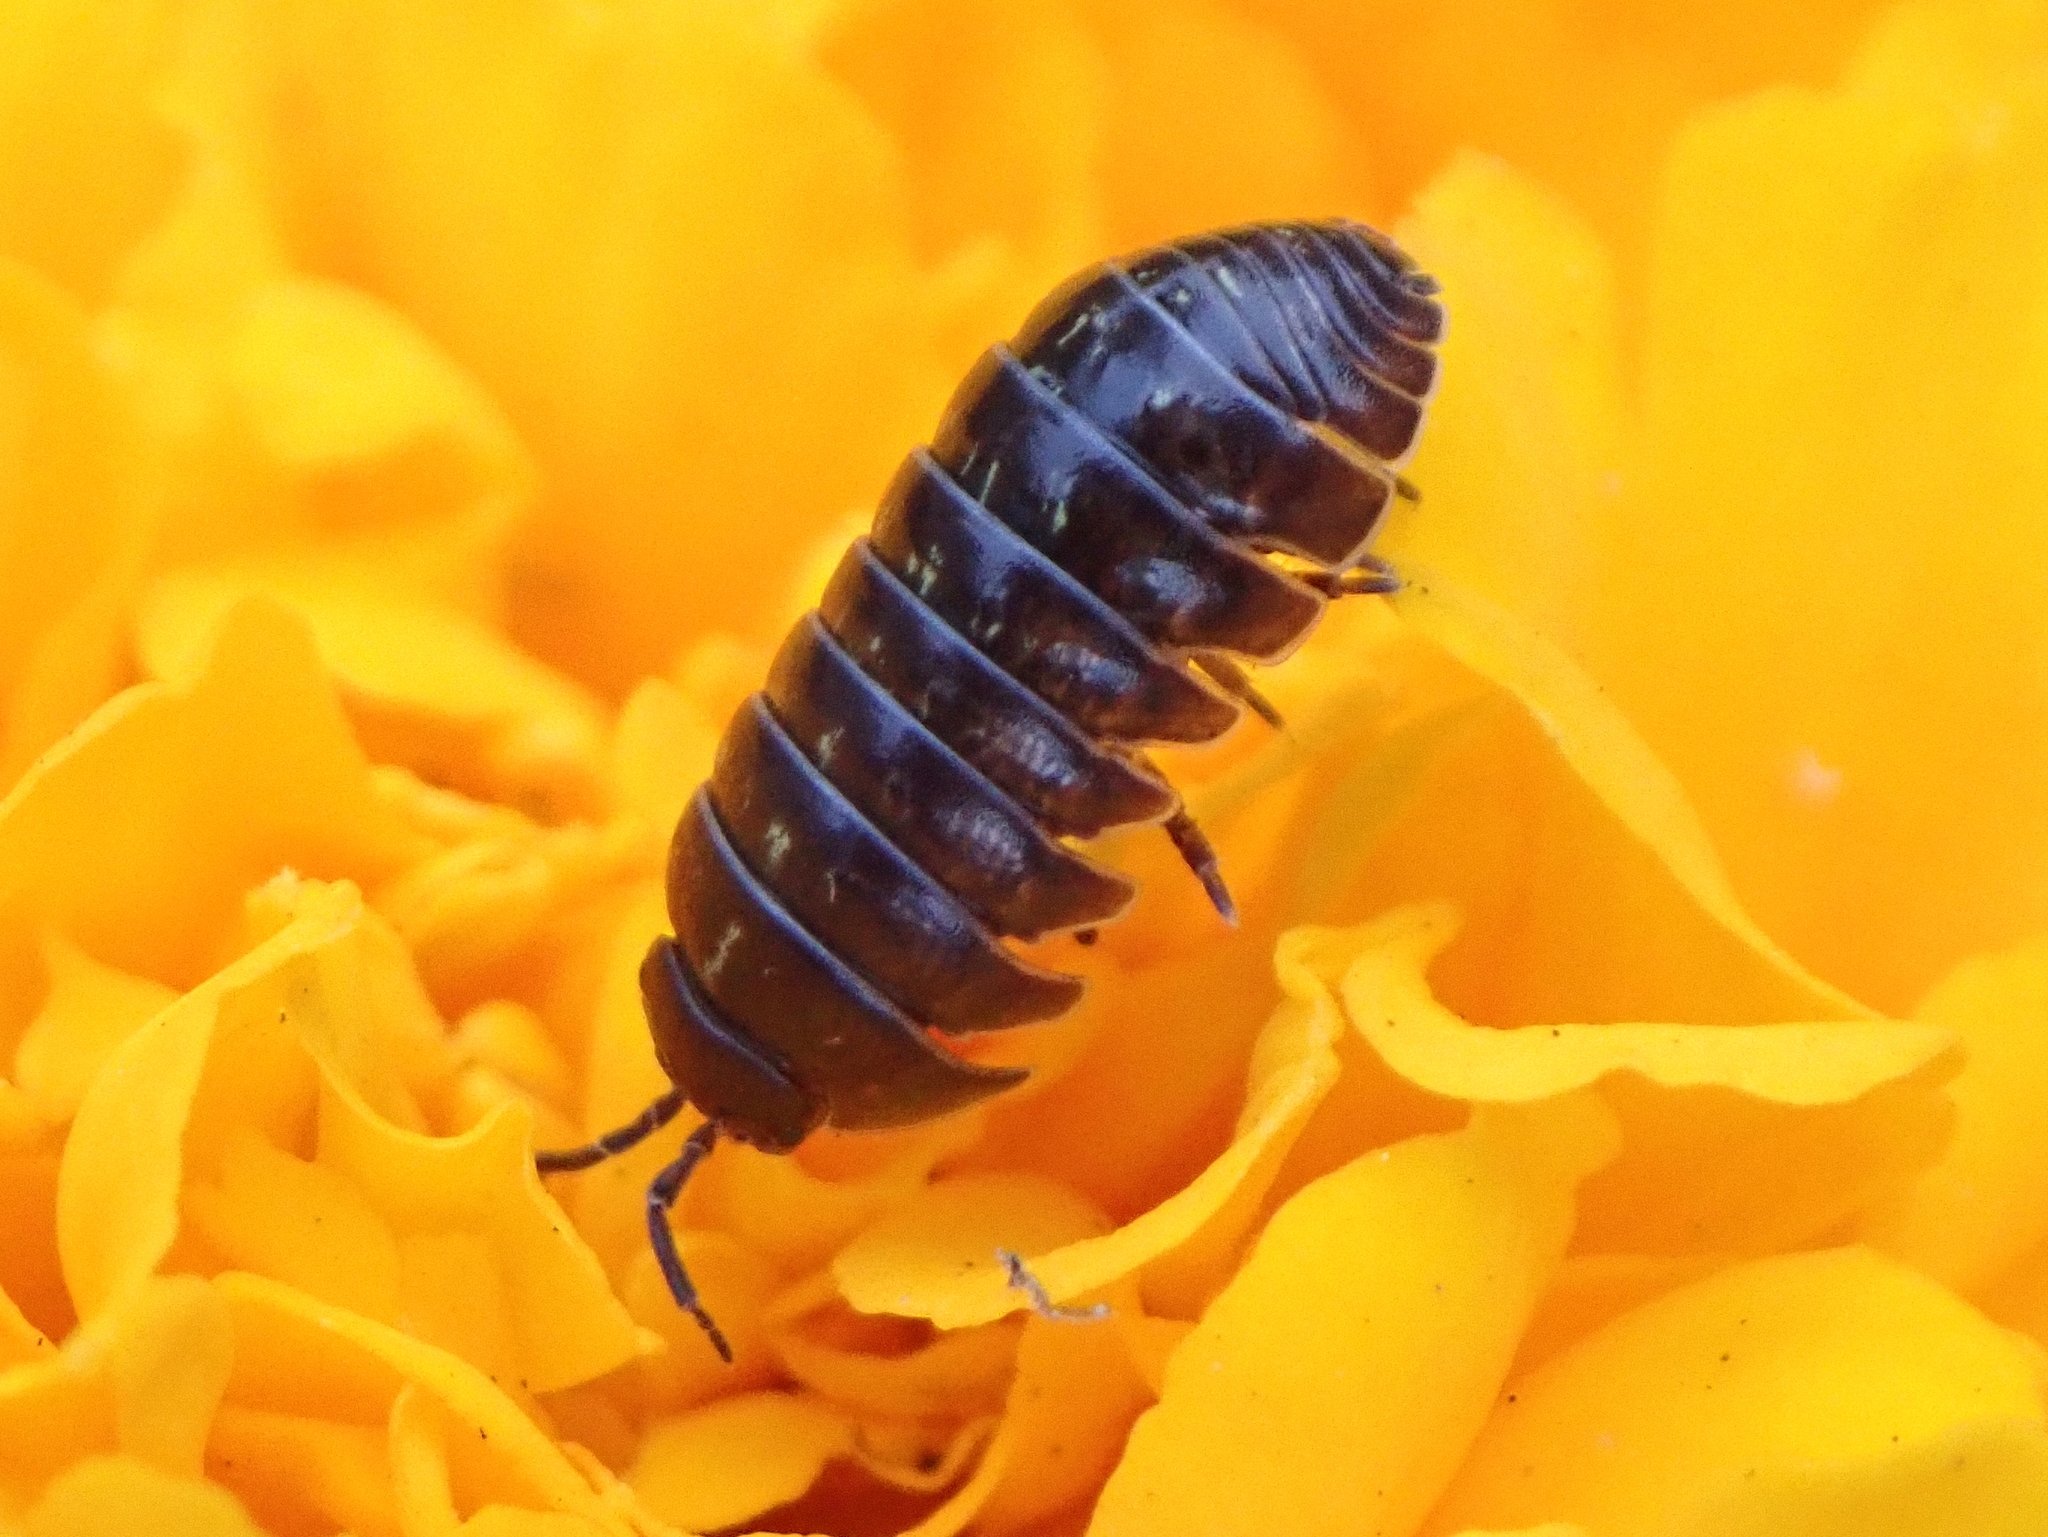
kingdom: Animalia
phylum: Arthropoda
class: Malacostraca
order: Isopoda
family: Armadillidiidae
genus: Armadillidium
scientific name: Armadillidium vulgare
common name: Common pill woodlouse
